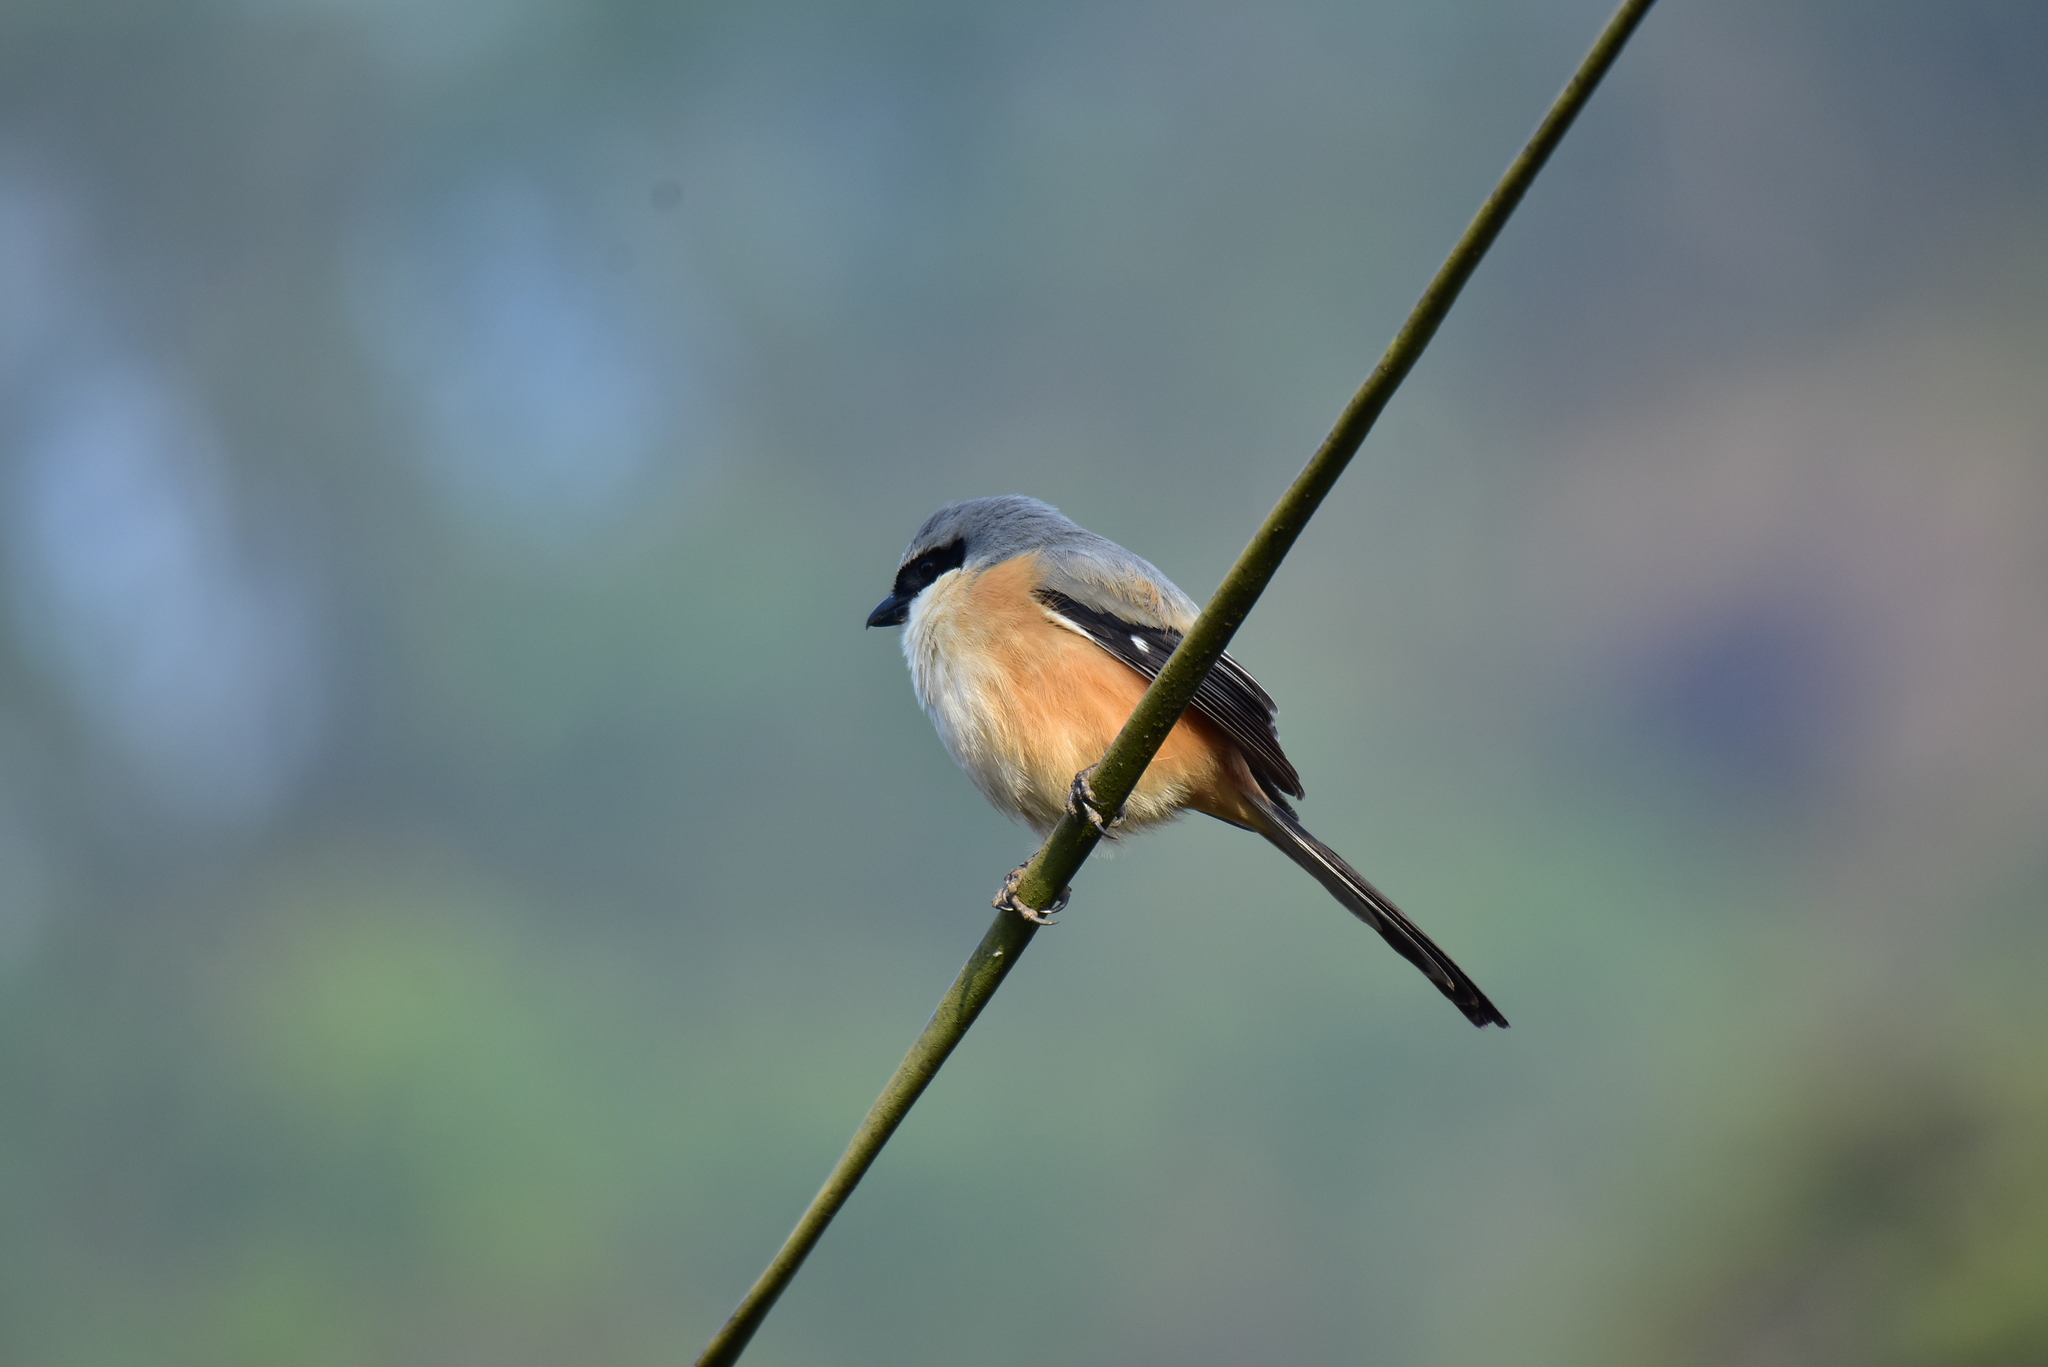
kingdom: Animalia
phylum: Chordata
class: Aves
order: Passeriformes
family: Laniidae
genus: Lanius
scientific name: Lanius schach
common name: Long-tailed shrike
